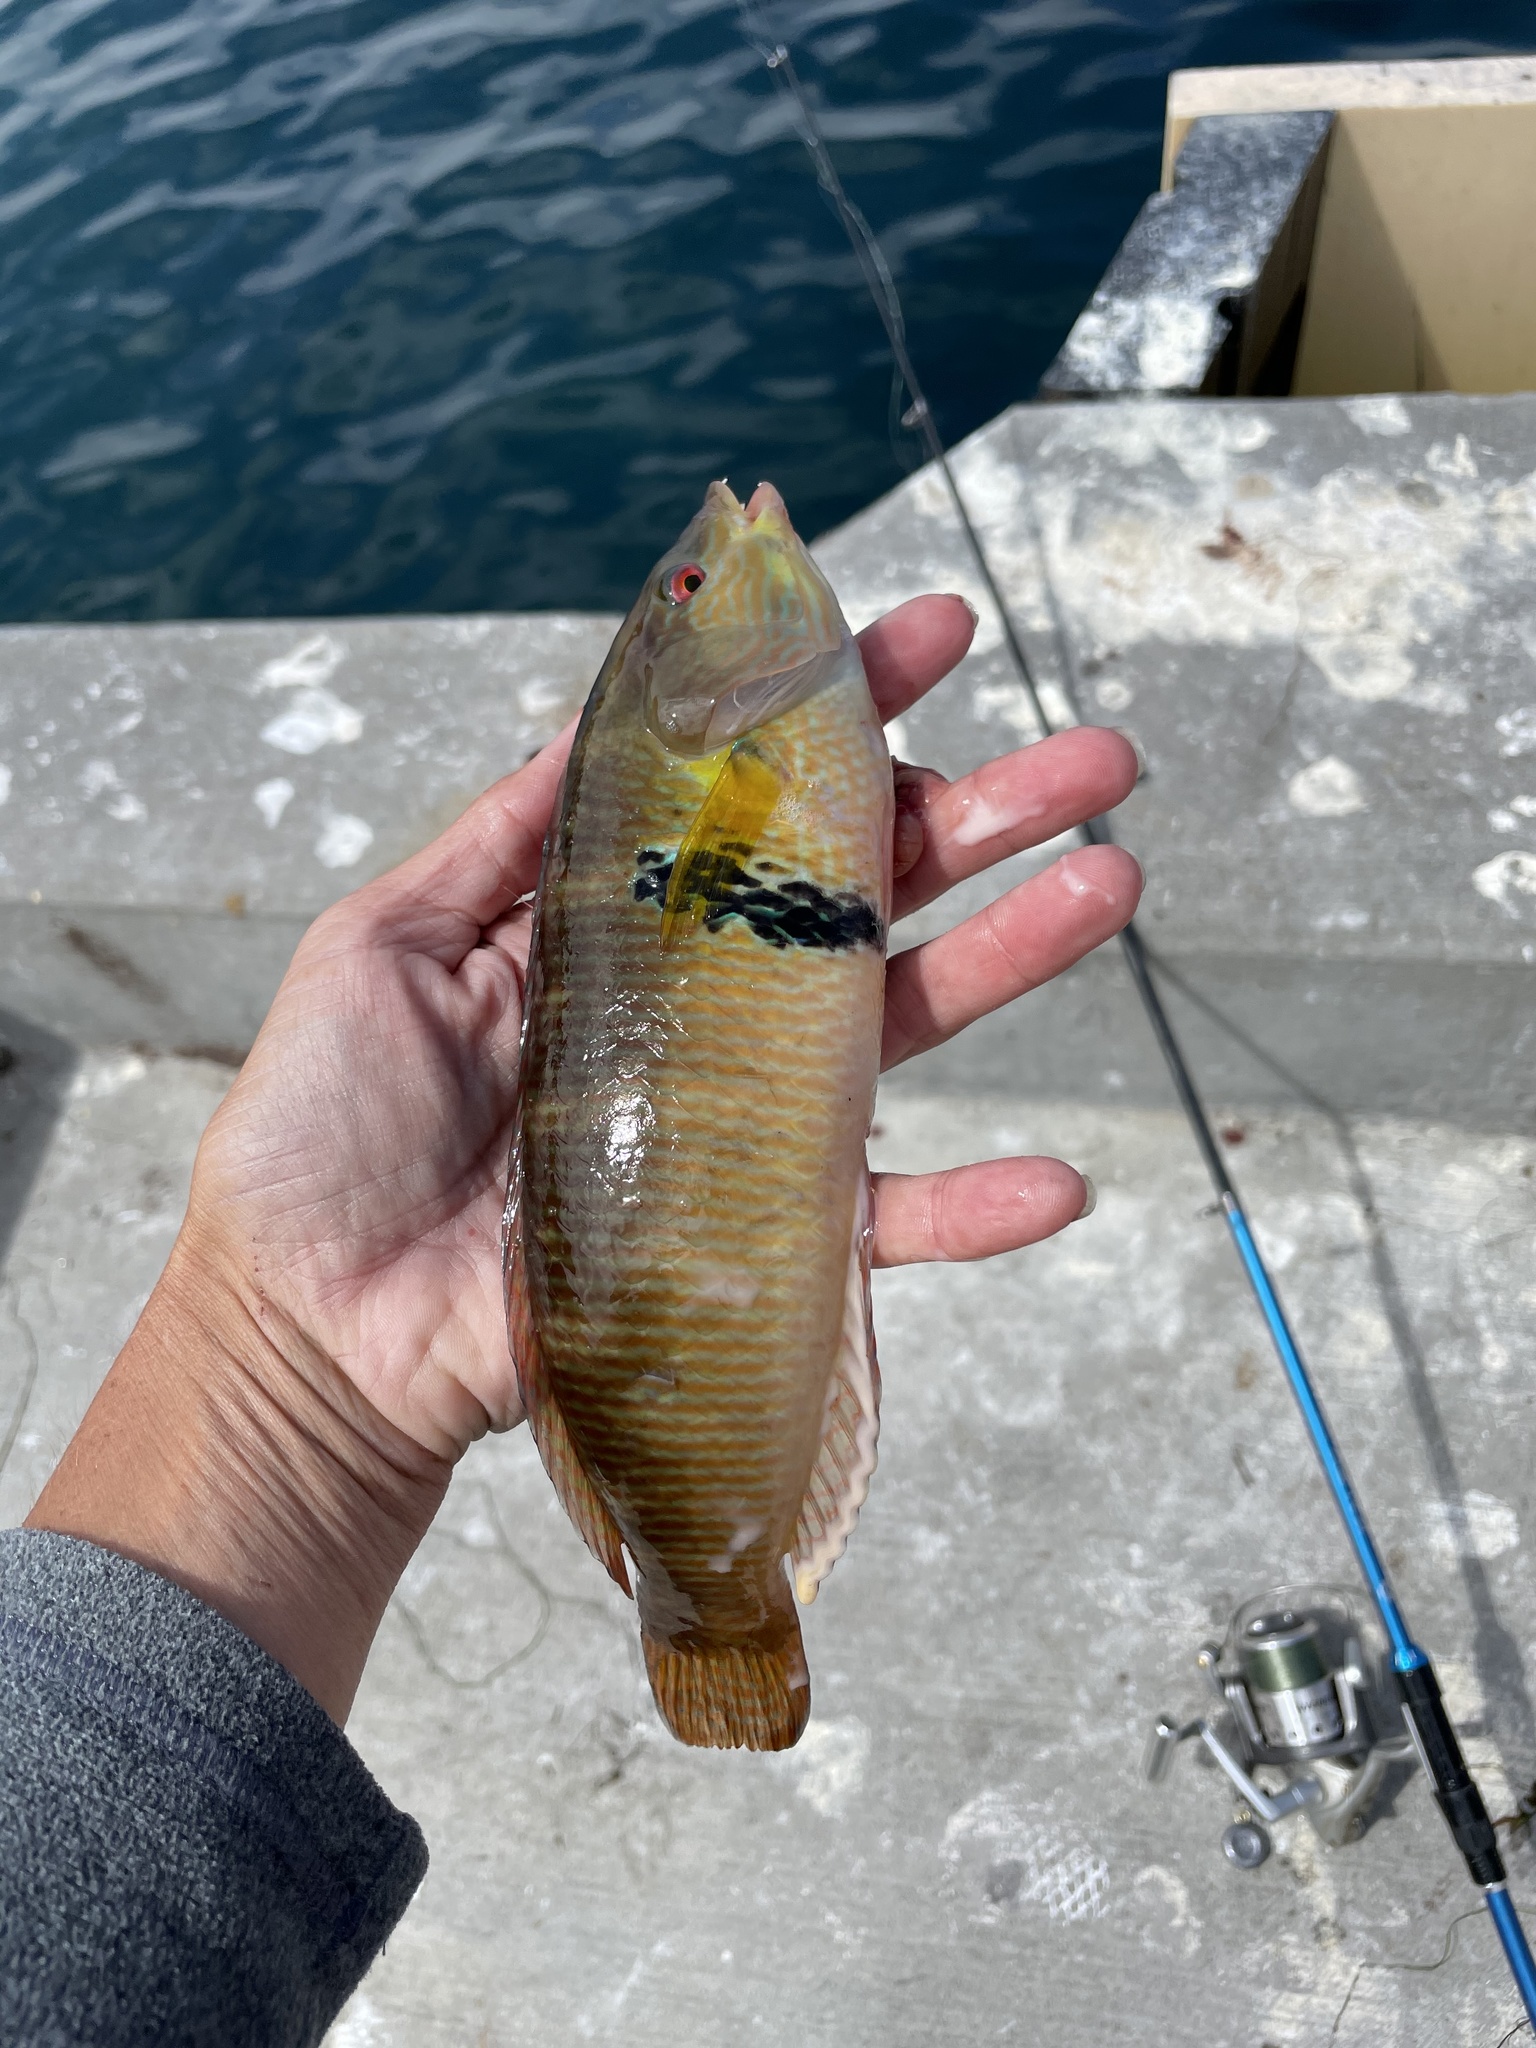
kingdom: Animalia
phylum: Chordata
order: Perciformes
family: Labridae
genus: Halichoeres
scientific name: Halichoeres semicinctus
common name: Rock wrasse
